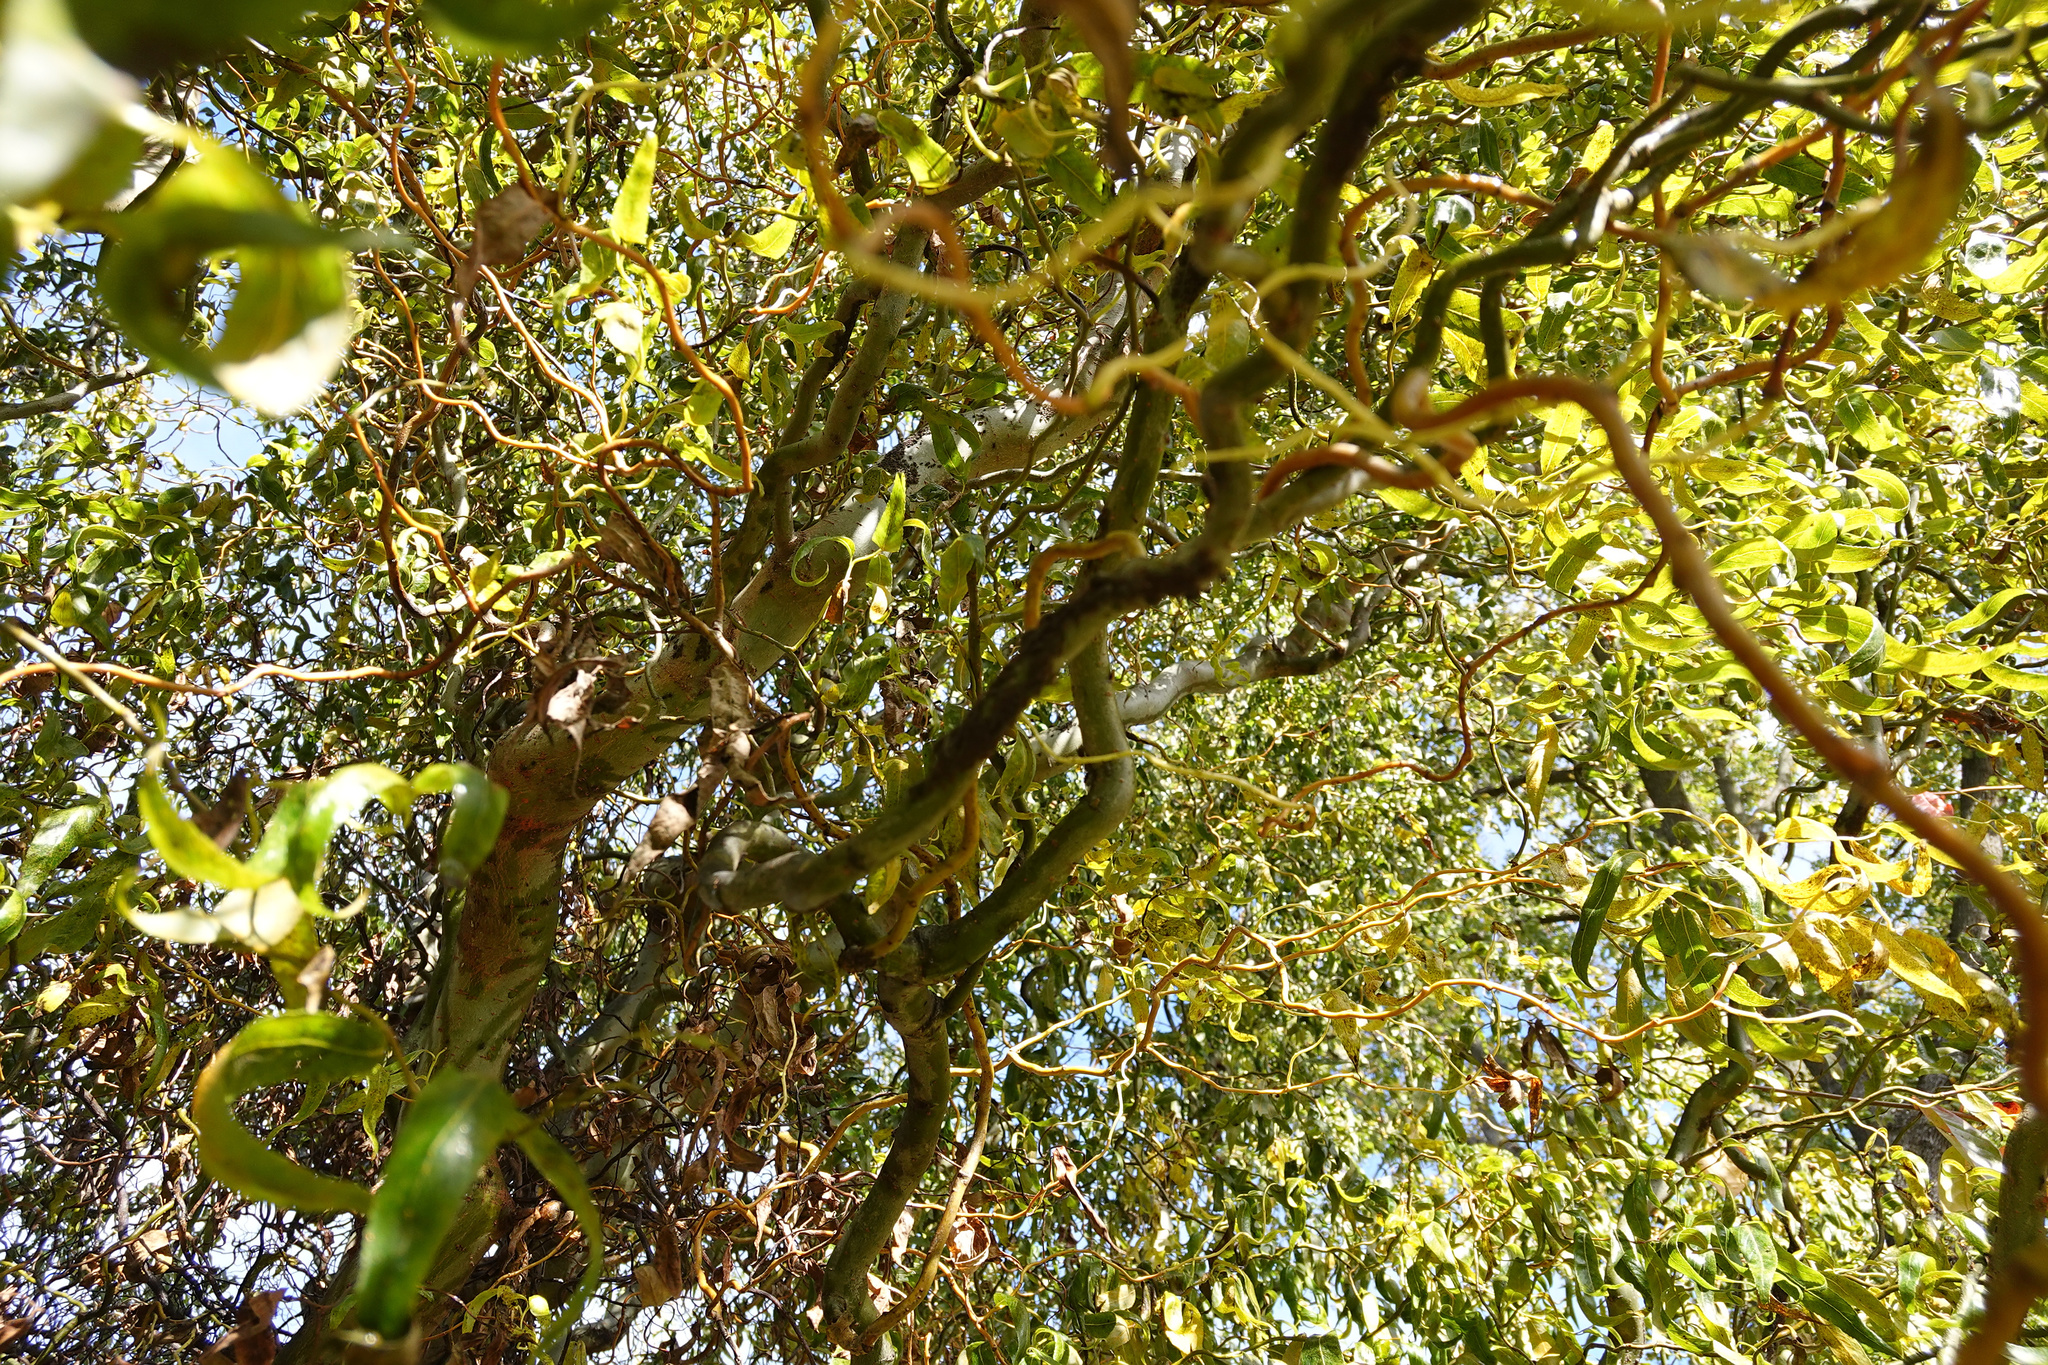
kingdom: Animalia
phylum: Arthropoda
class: Insecta
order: Hemiptera
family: Aphididae
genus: Tuberolachnus
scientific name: Tuberolachnus salignus
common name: Giant willow aphid
